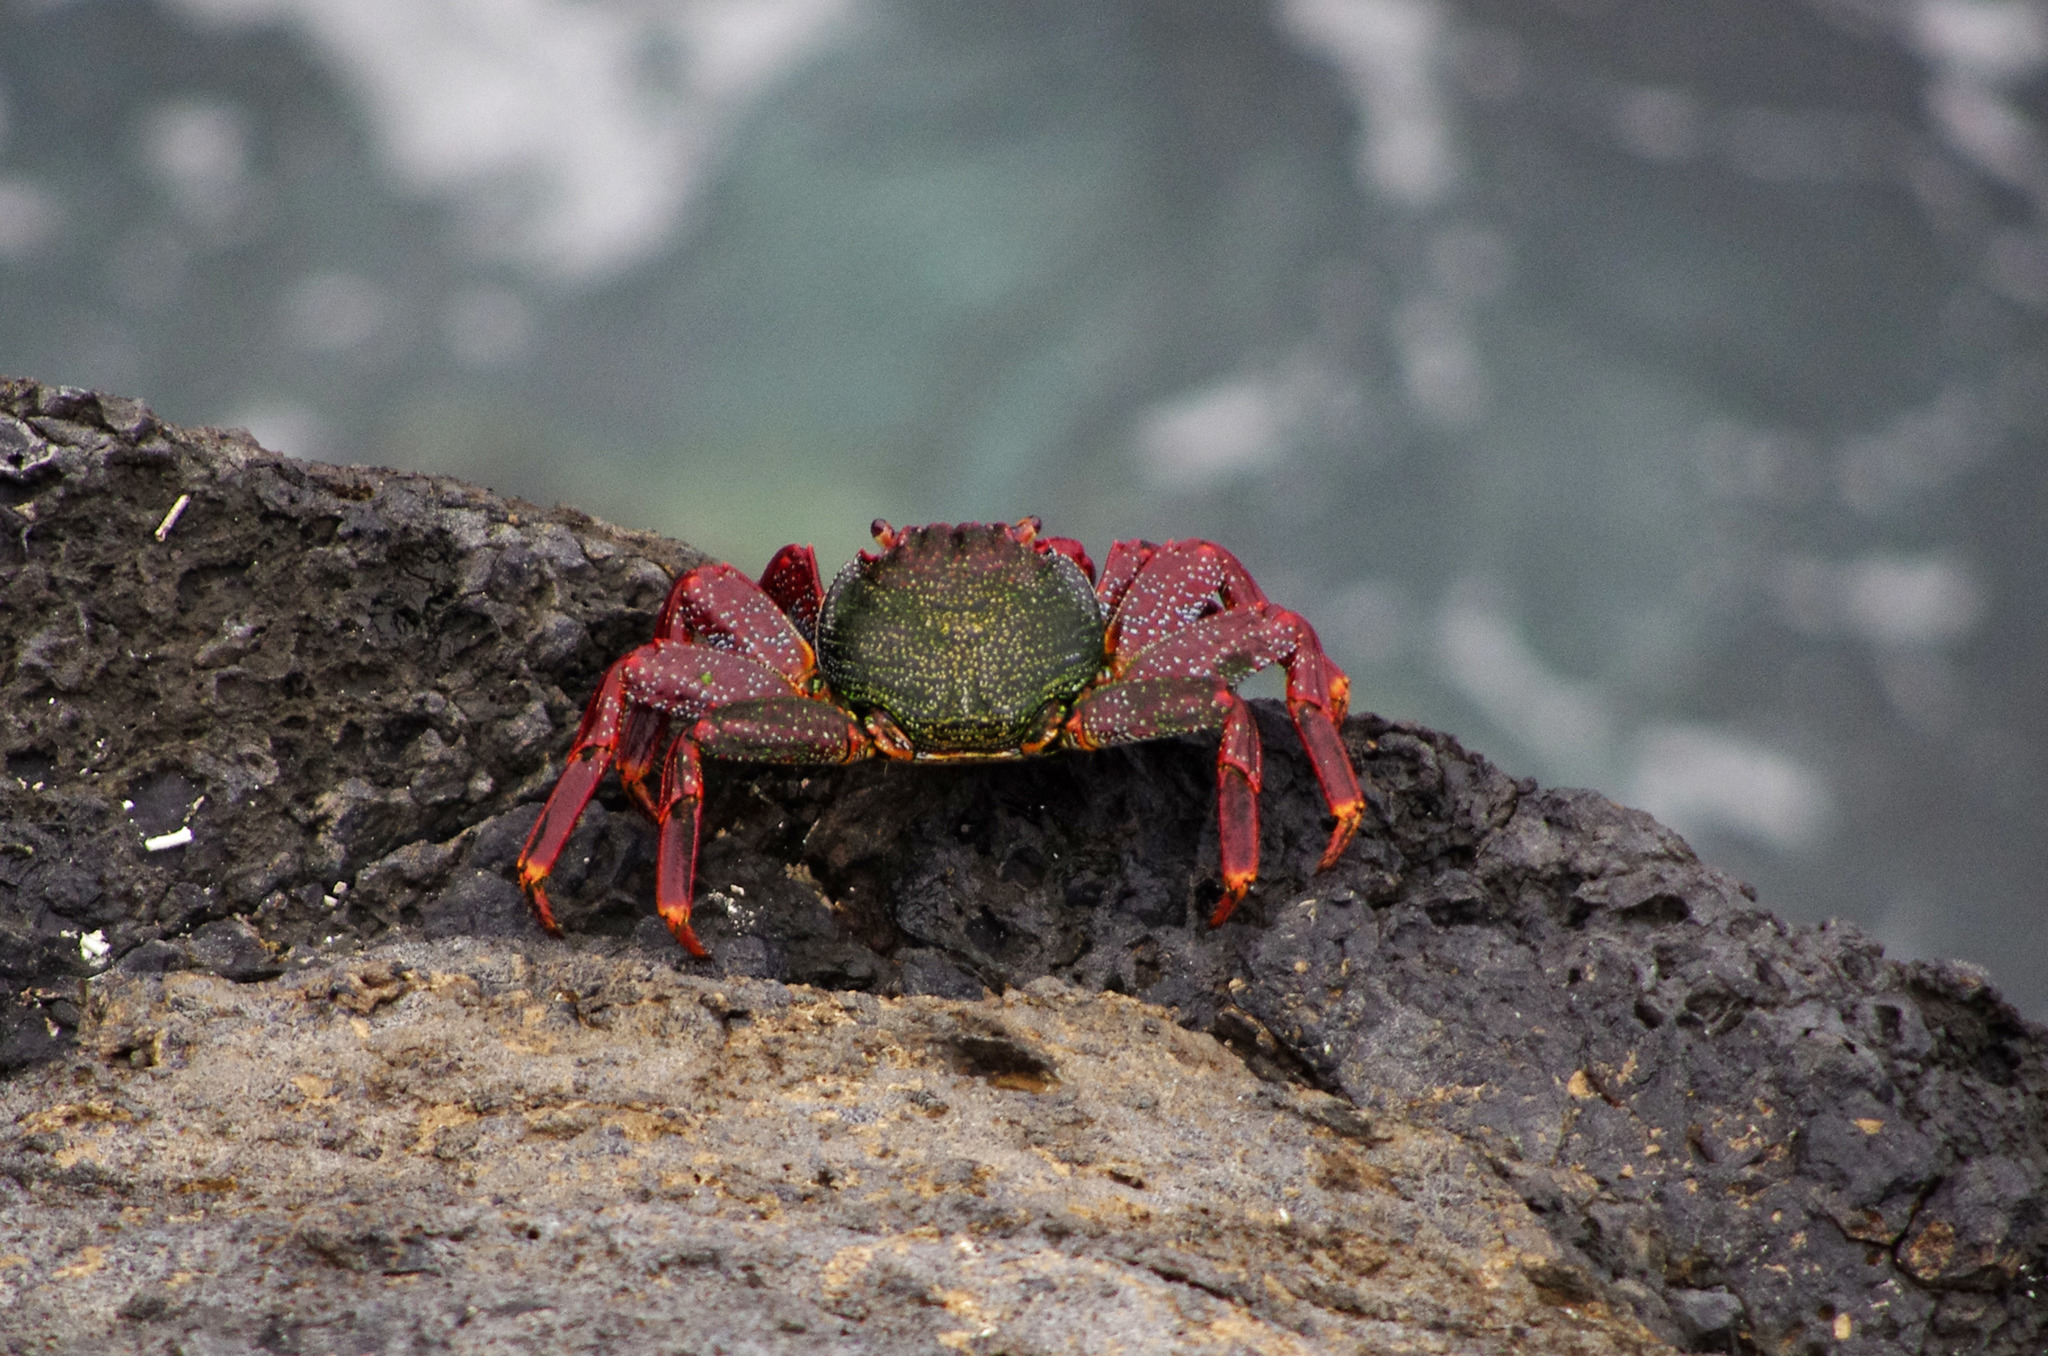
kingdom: Animalia
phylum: Arthropoda
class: Malacostraca
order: Decapoda
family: Grapsidae
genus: Grapsus
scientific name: Grapsus adscensionis
